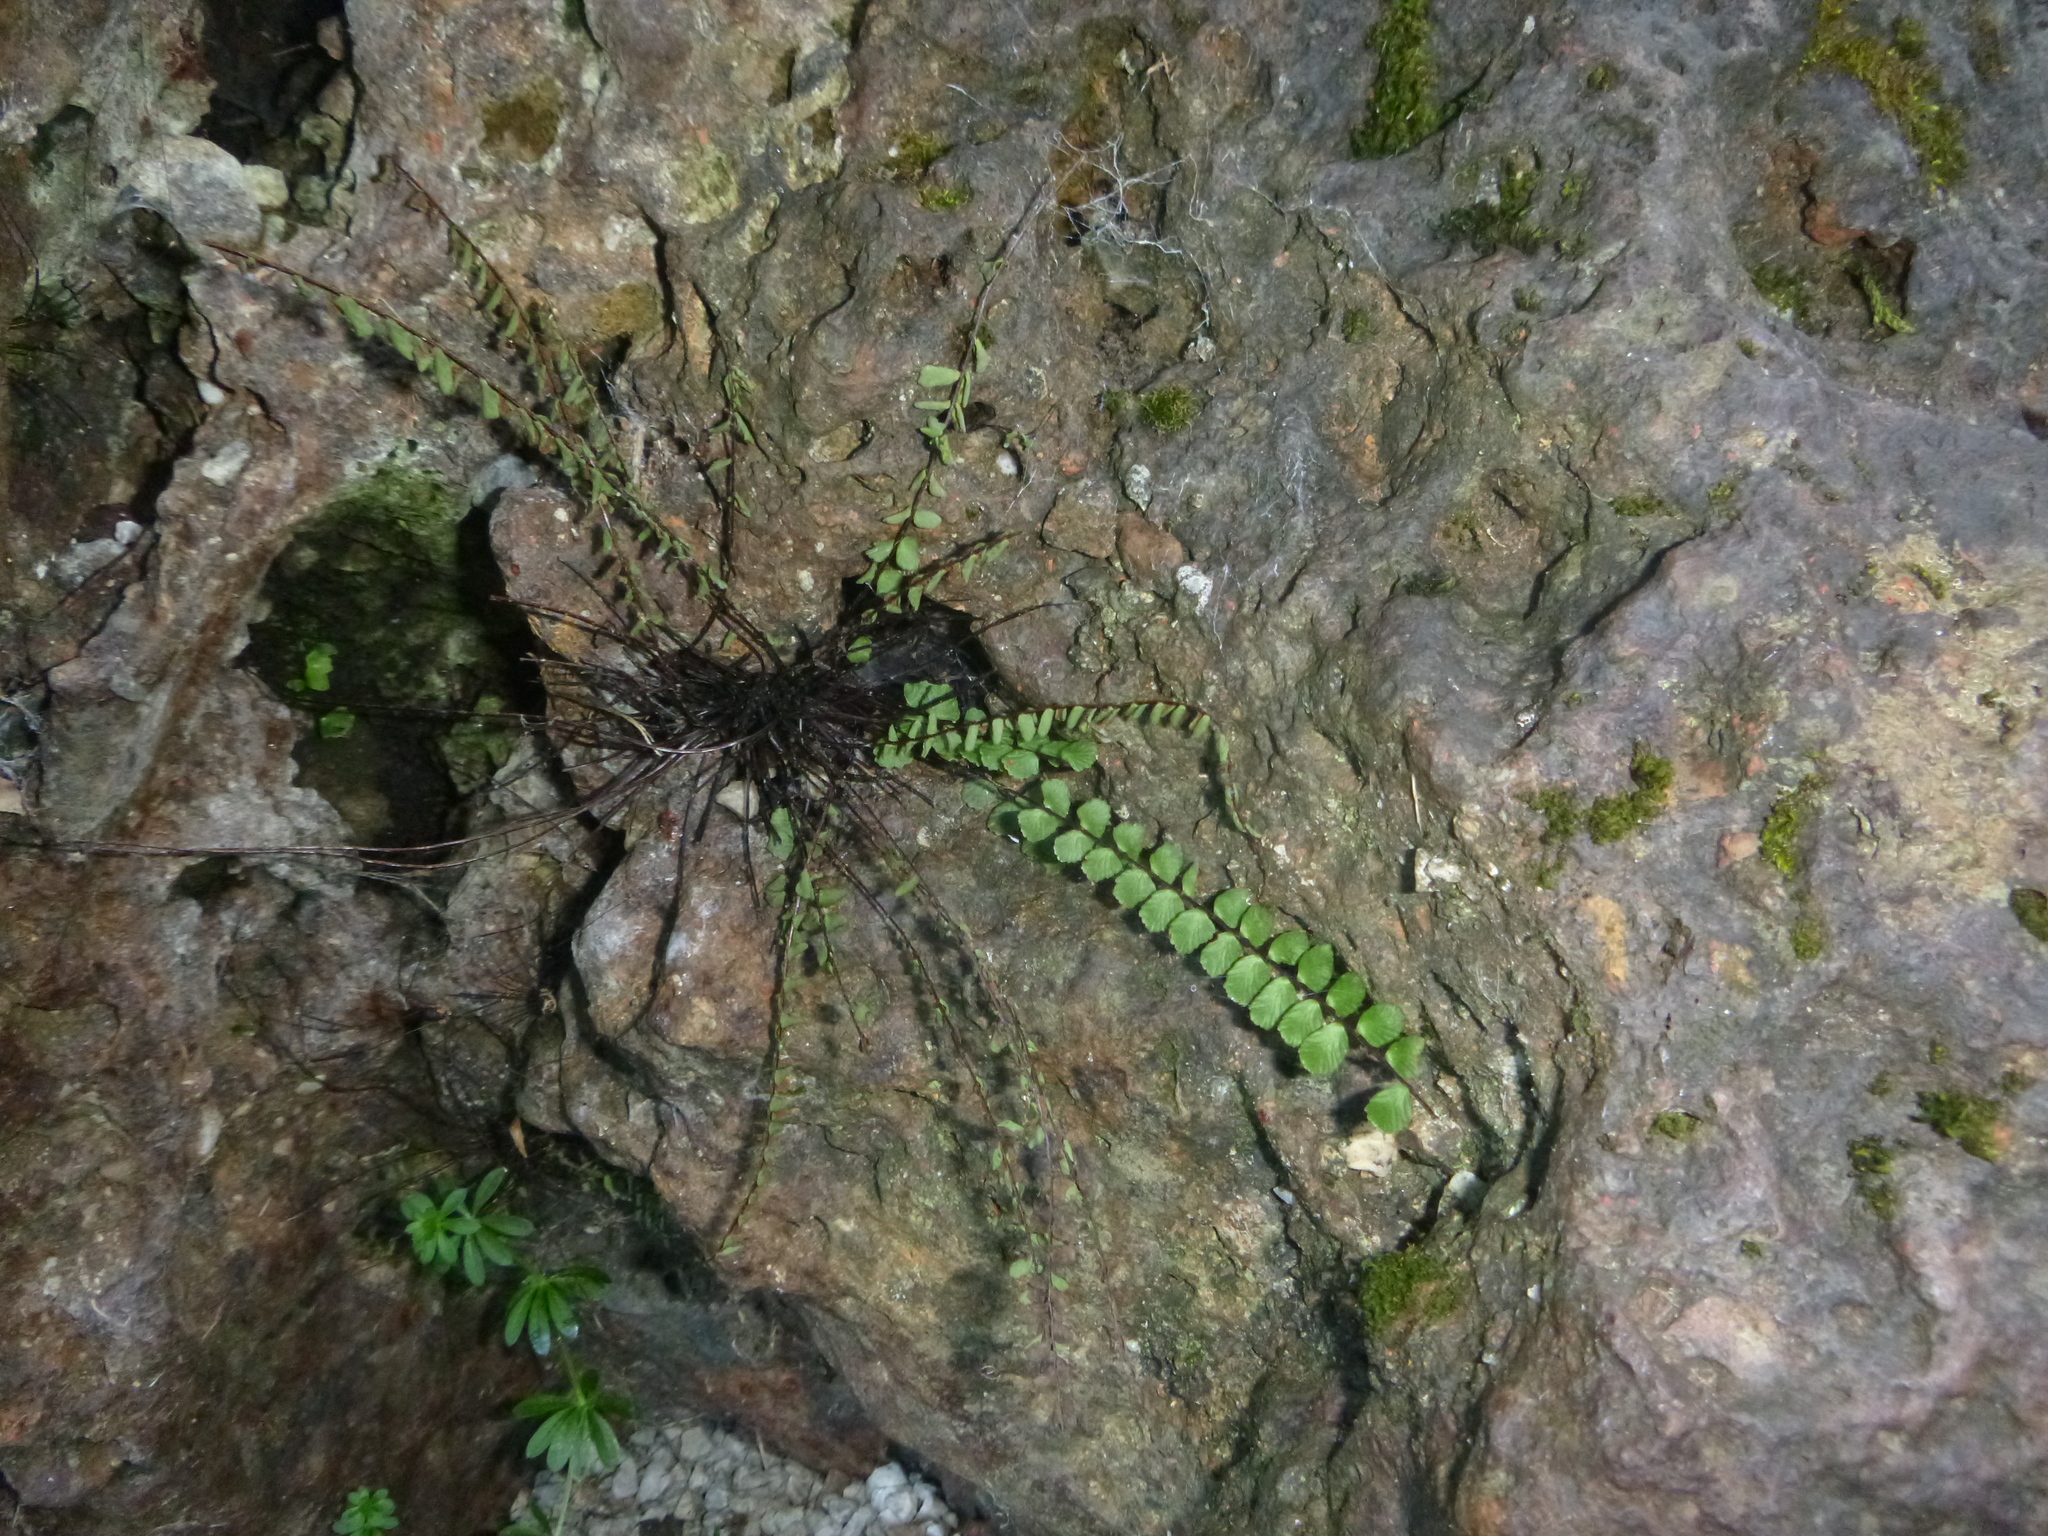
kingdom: Plantae
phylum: Tracheophyta
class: Polypodiopsida
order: Polypodiales
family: Aspleniaceae
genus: Asplenium
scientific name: Asplenium trichomanes
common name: Maidenhair spleenwort
